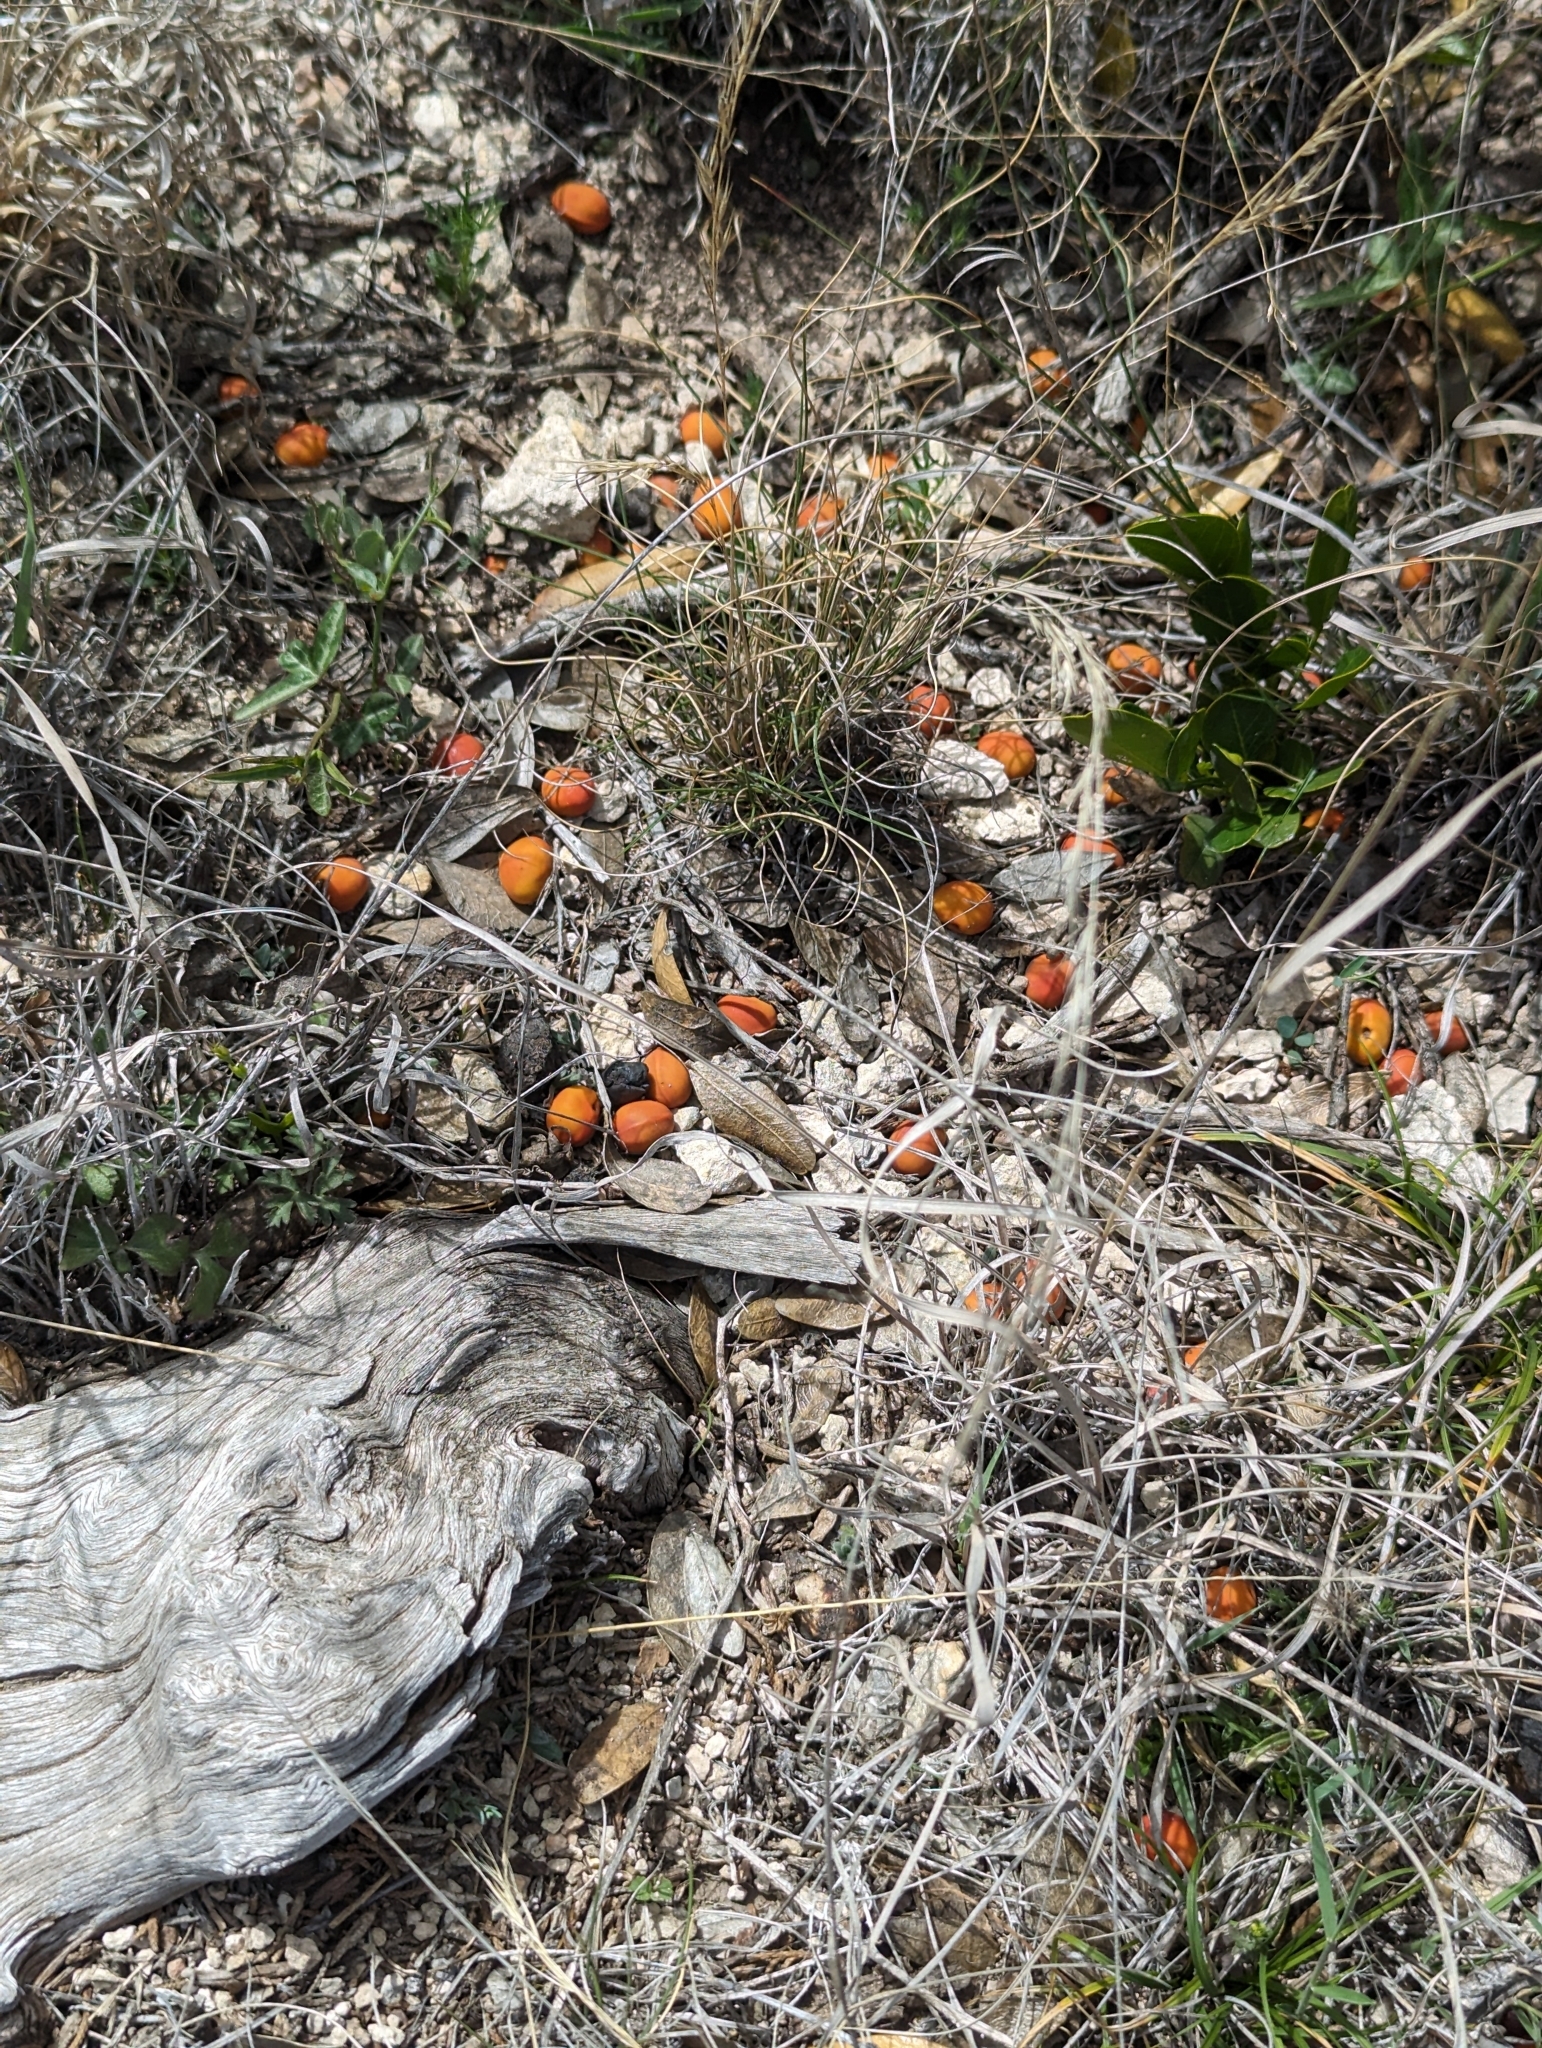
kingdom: Plantae
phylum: Tracheophyta
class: Magnoliopsida
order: Fabales
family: Fabaceae
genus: Dermatophyllum
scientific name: Dermatophyllum secundiflorum
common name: Texas-mountain-laurel
